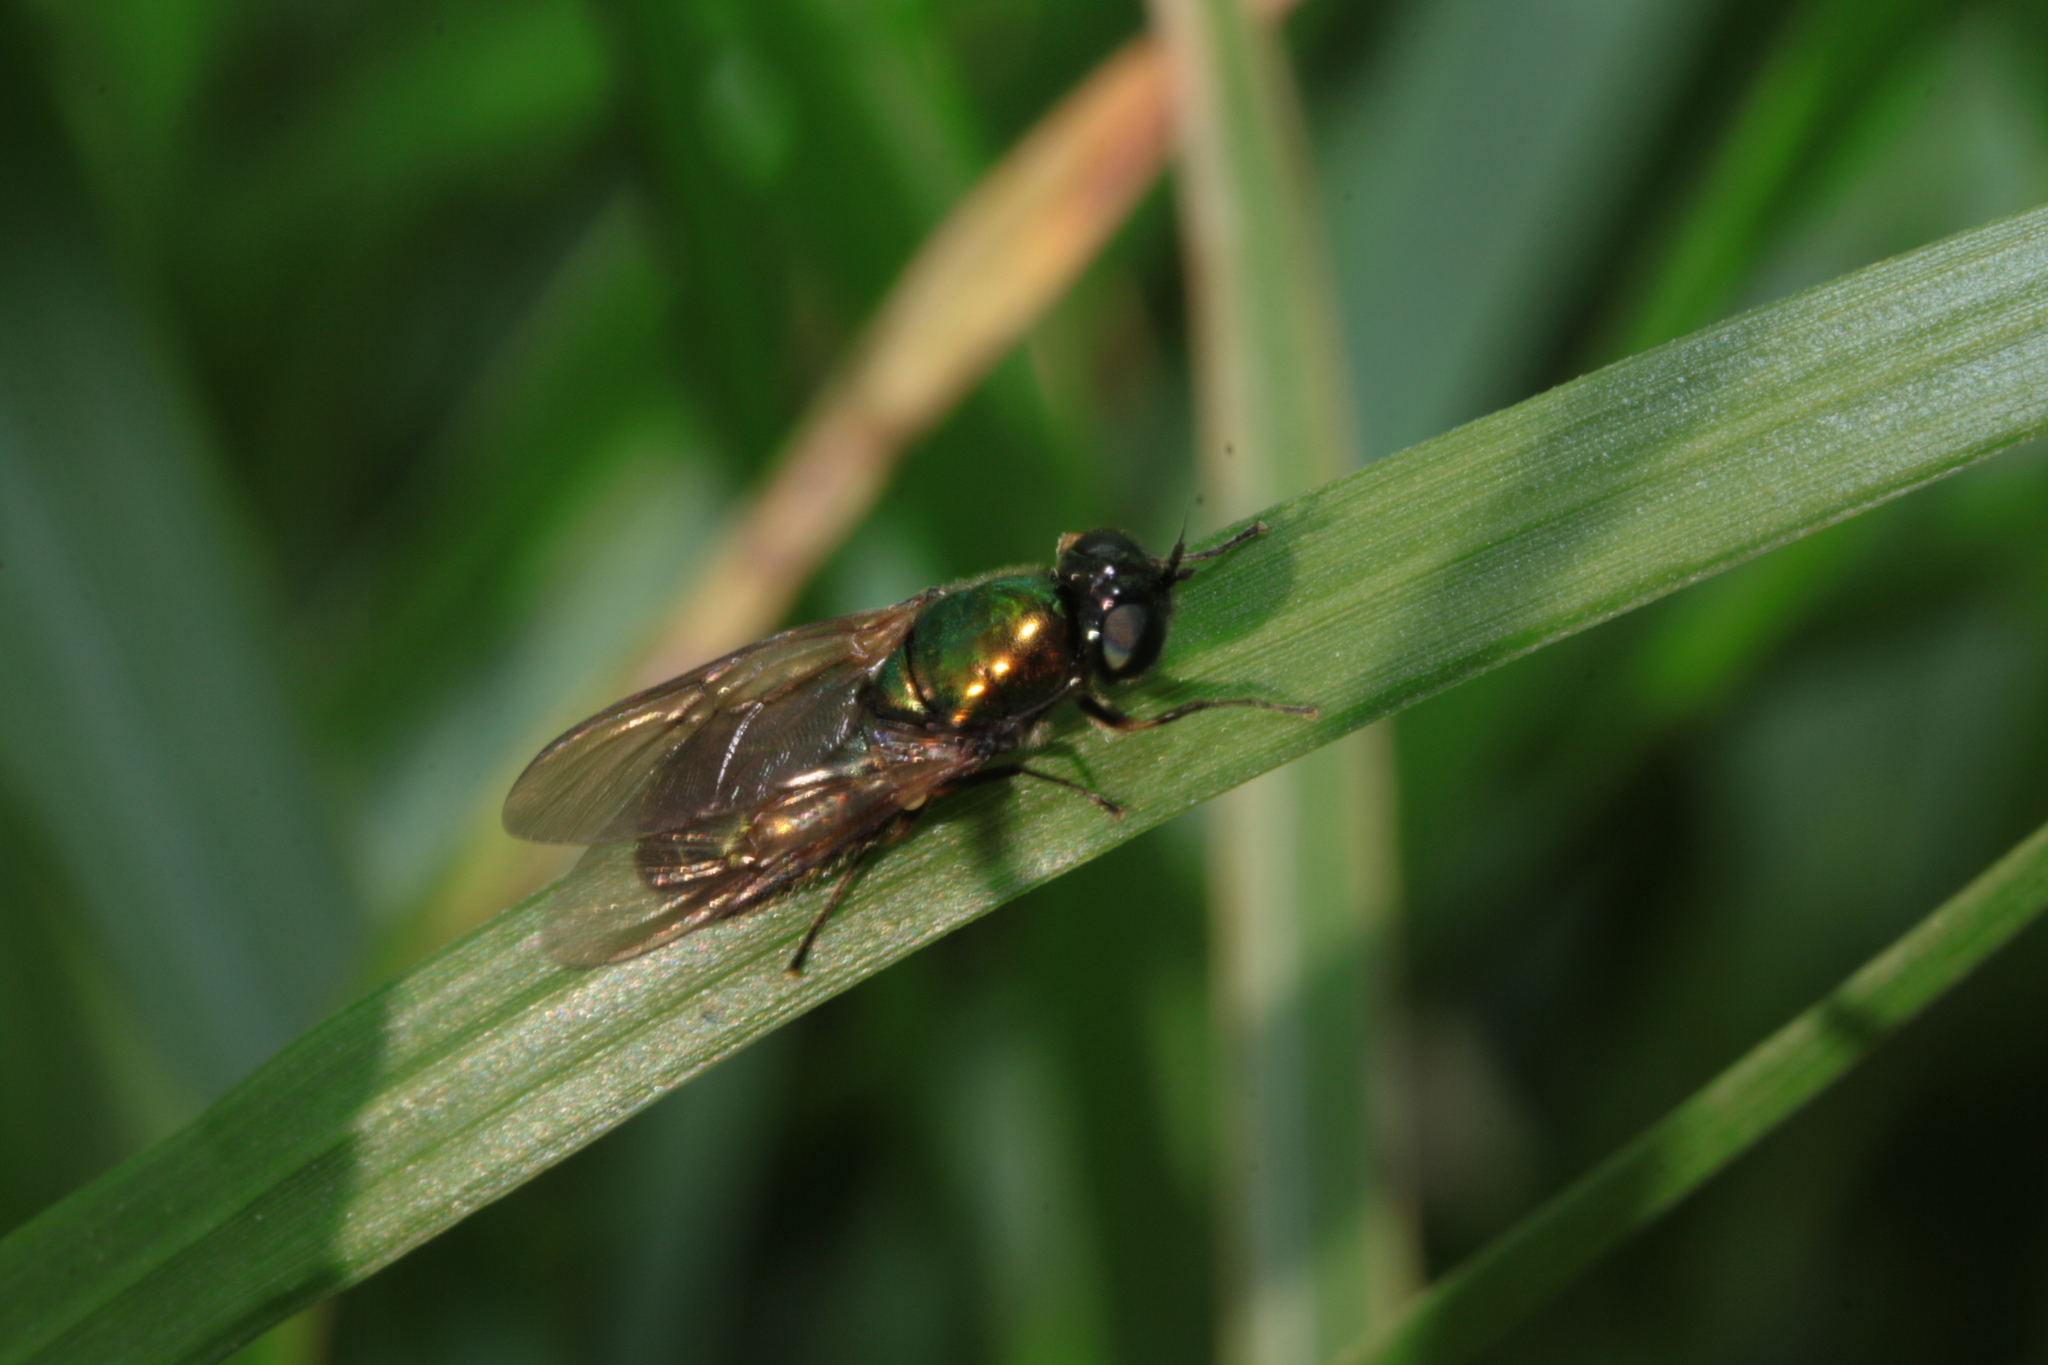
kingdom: Animalia
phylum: Arthropoda
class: Insecta
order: Diptera
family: Stratiomyidae
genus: Chloromyia
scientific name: Chloromyia formosa
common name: Soldier fly
